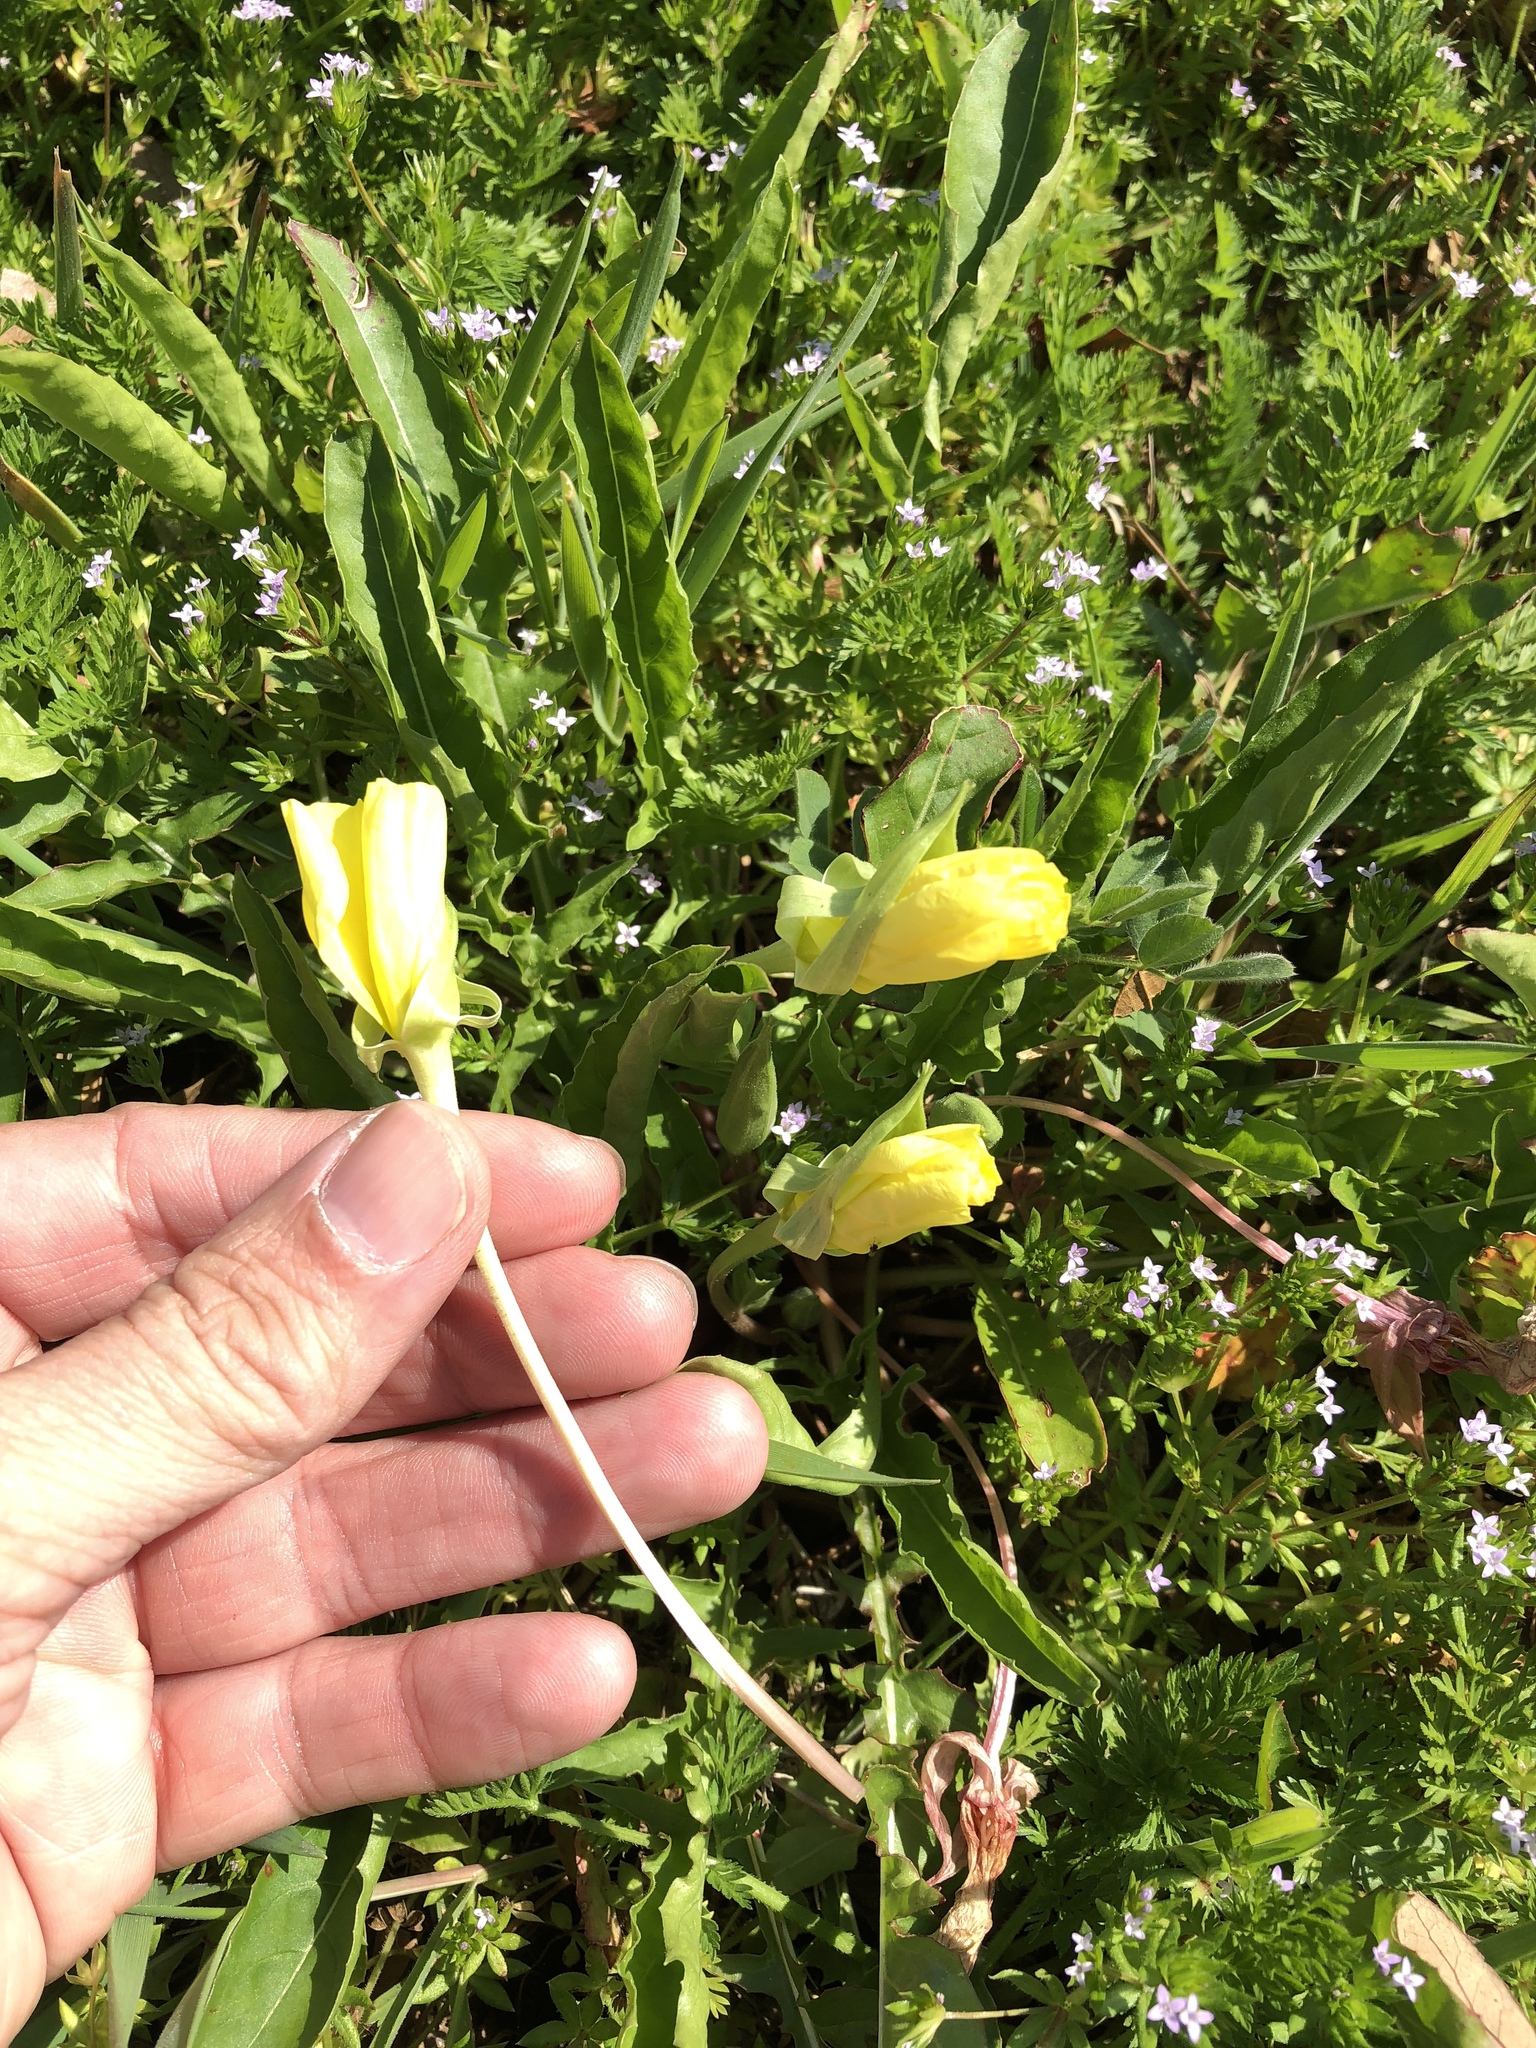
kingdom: Plantae
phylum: Tracheophyta
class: Magnoliopsida
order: Myrtales
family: Onagraceae
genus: Oenothera
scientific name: Oenothera triloba
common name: Sessile evening-primrose
